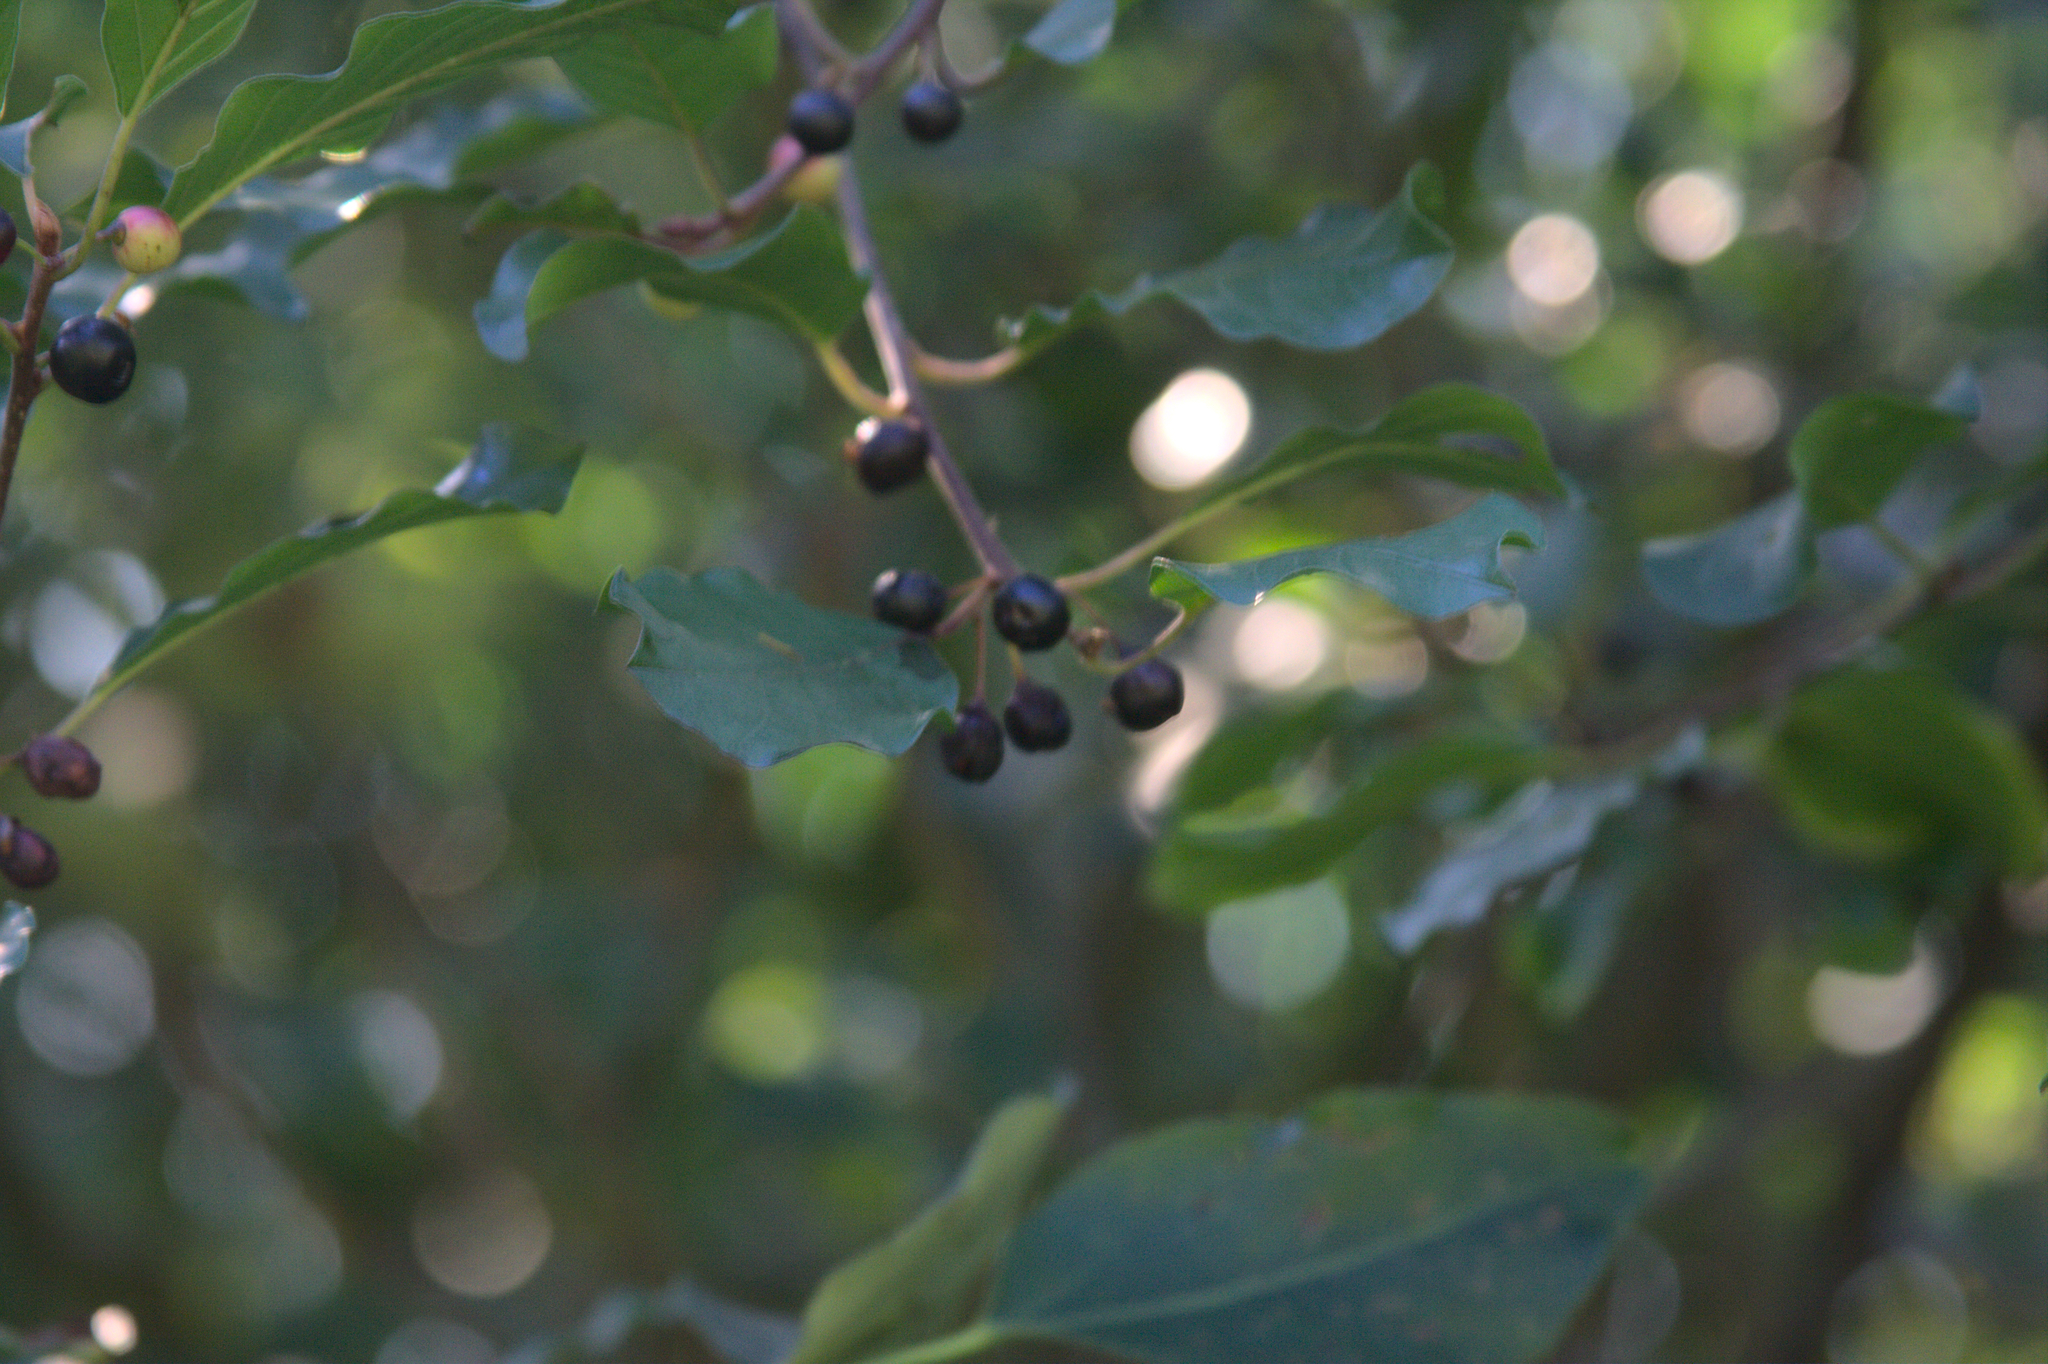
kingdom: Plantae
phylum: Tracheophyta
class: Magnoliopsida
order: Rosales
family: Rhamnaceae
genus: Frangula
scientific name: Frangula alnus
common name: Alder buckthorn
